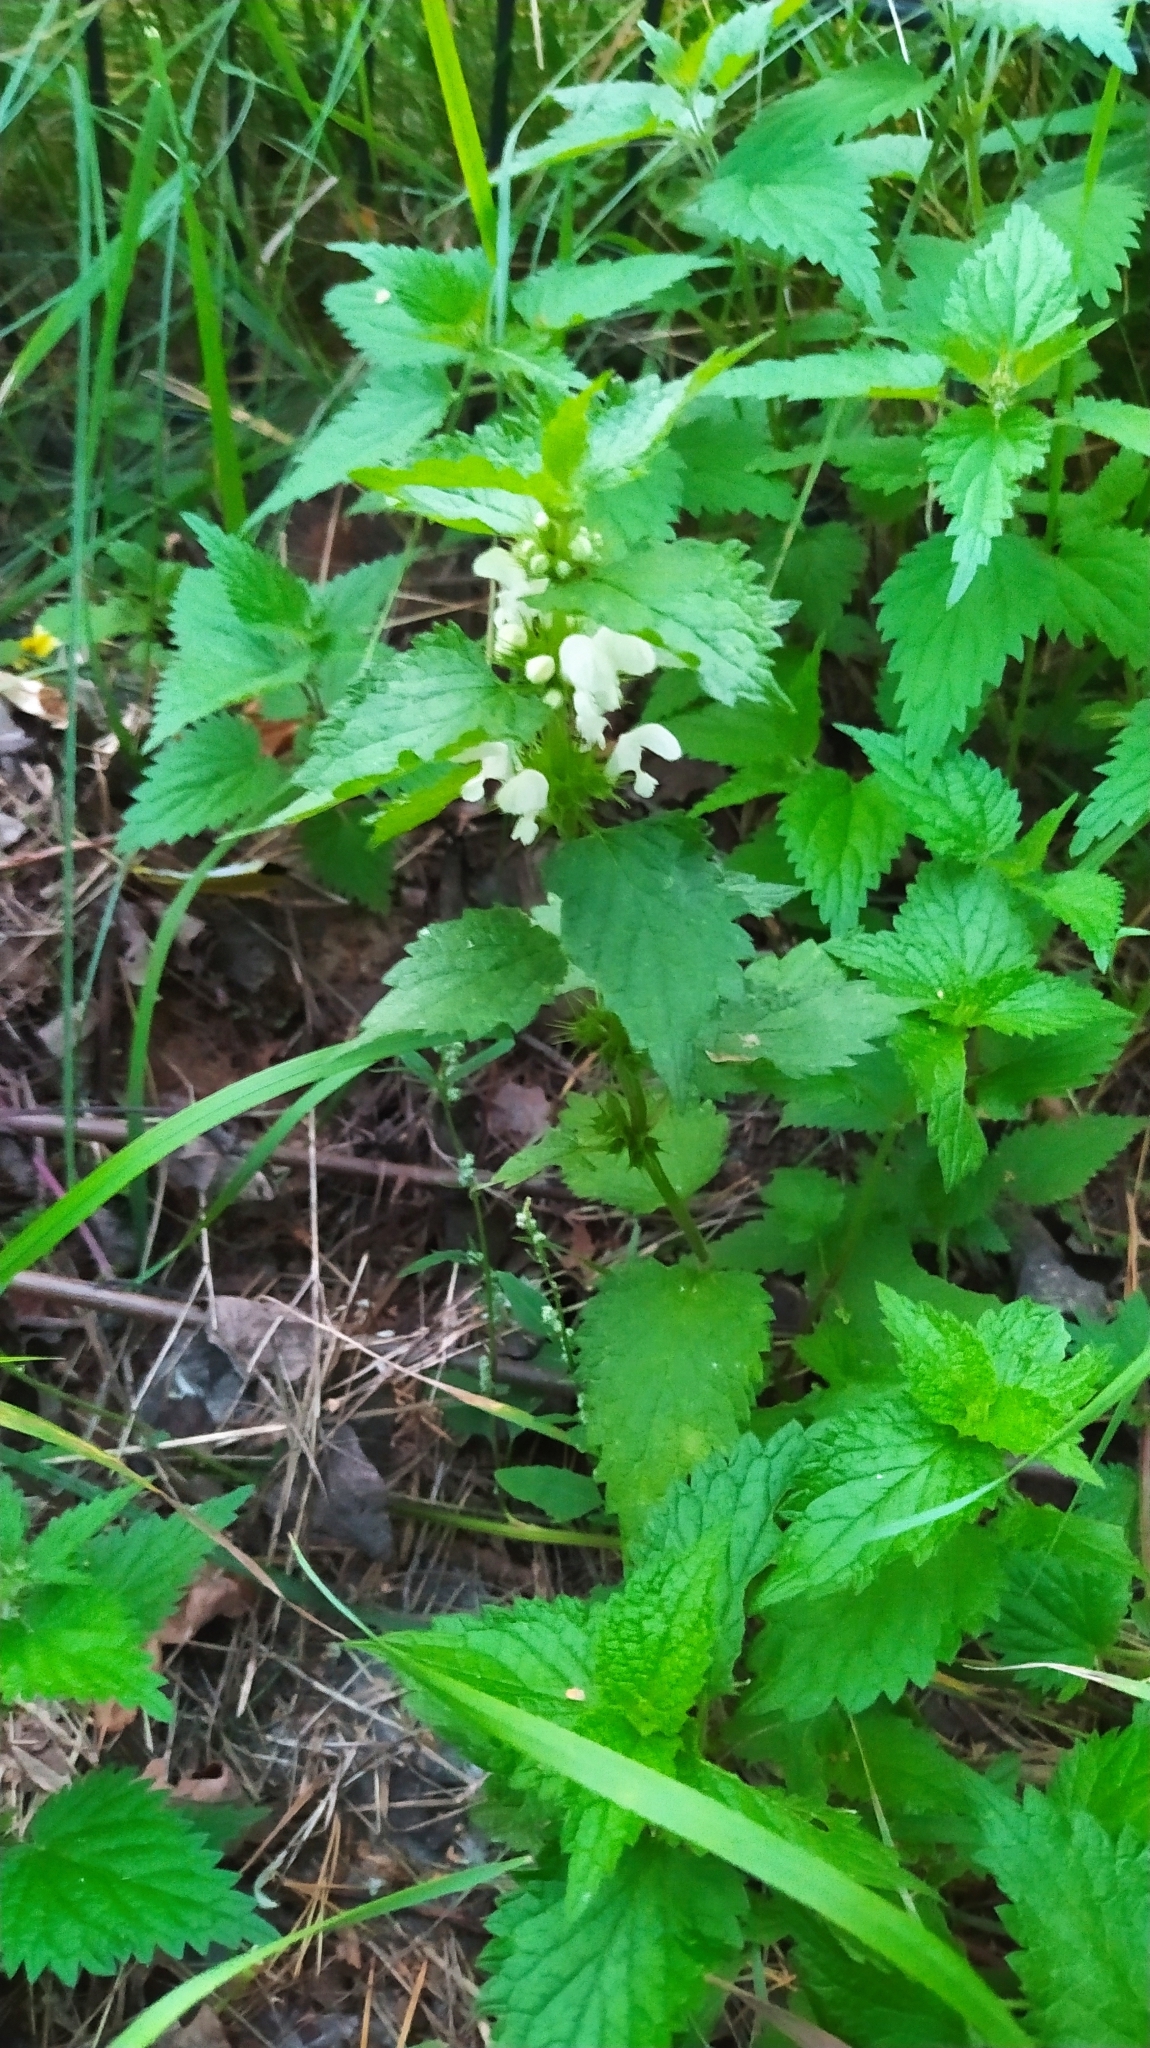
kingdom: Plantae
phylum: Tracheophyta
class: Magnoliopsida
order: Lamiales
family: Lamiaceae
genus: Lamium
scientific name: Lamium album
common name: White dead-nettle
